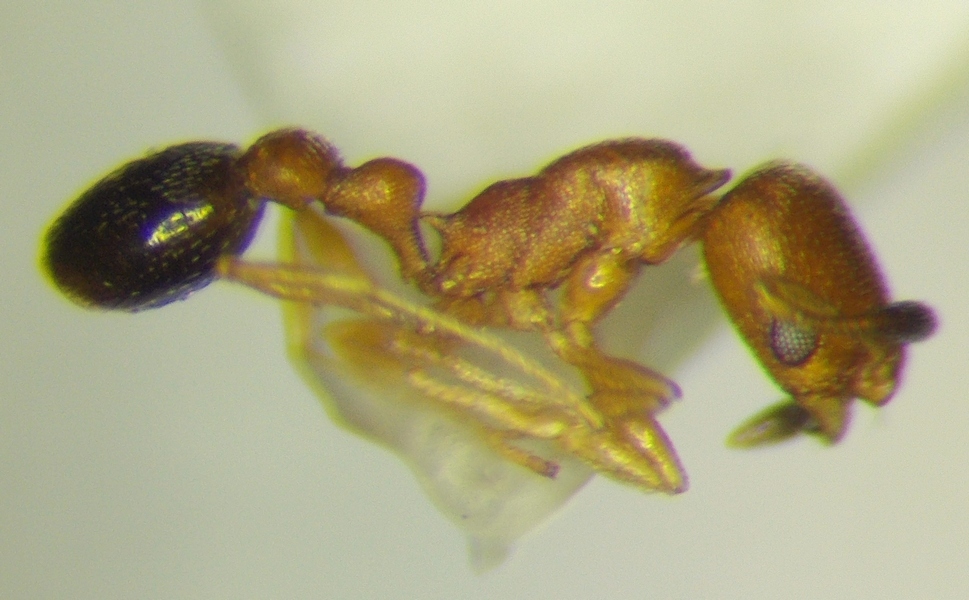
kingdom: Animalia
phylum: Arthropoda
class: Insecta
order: Hymenoptera
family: Formicidae
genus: Cardiocondyla
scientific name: Cardiocondyla emeryi
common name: Ant
